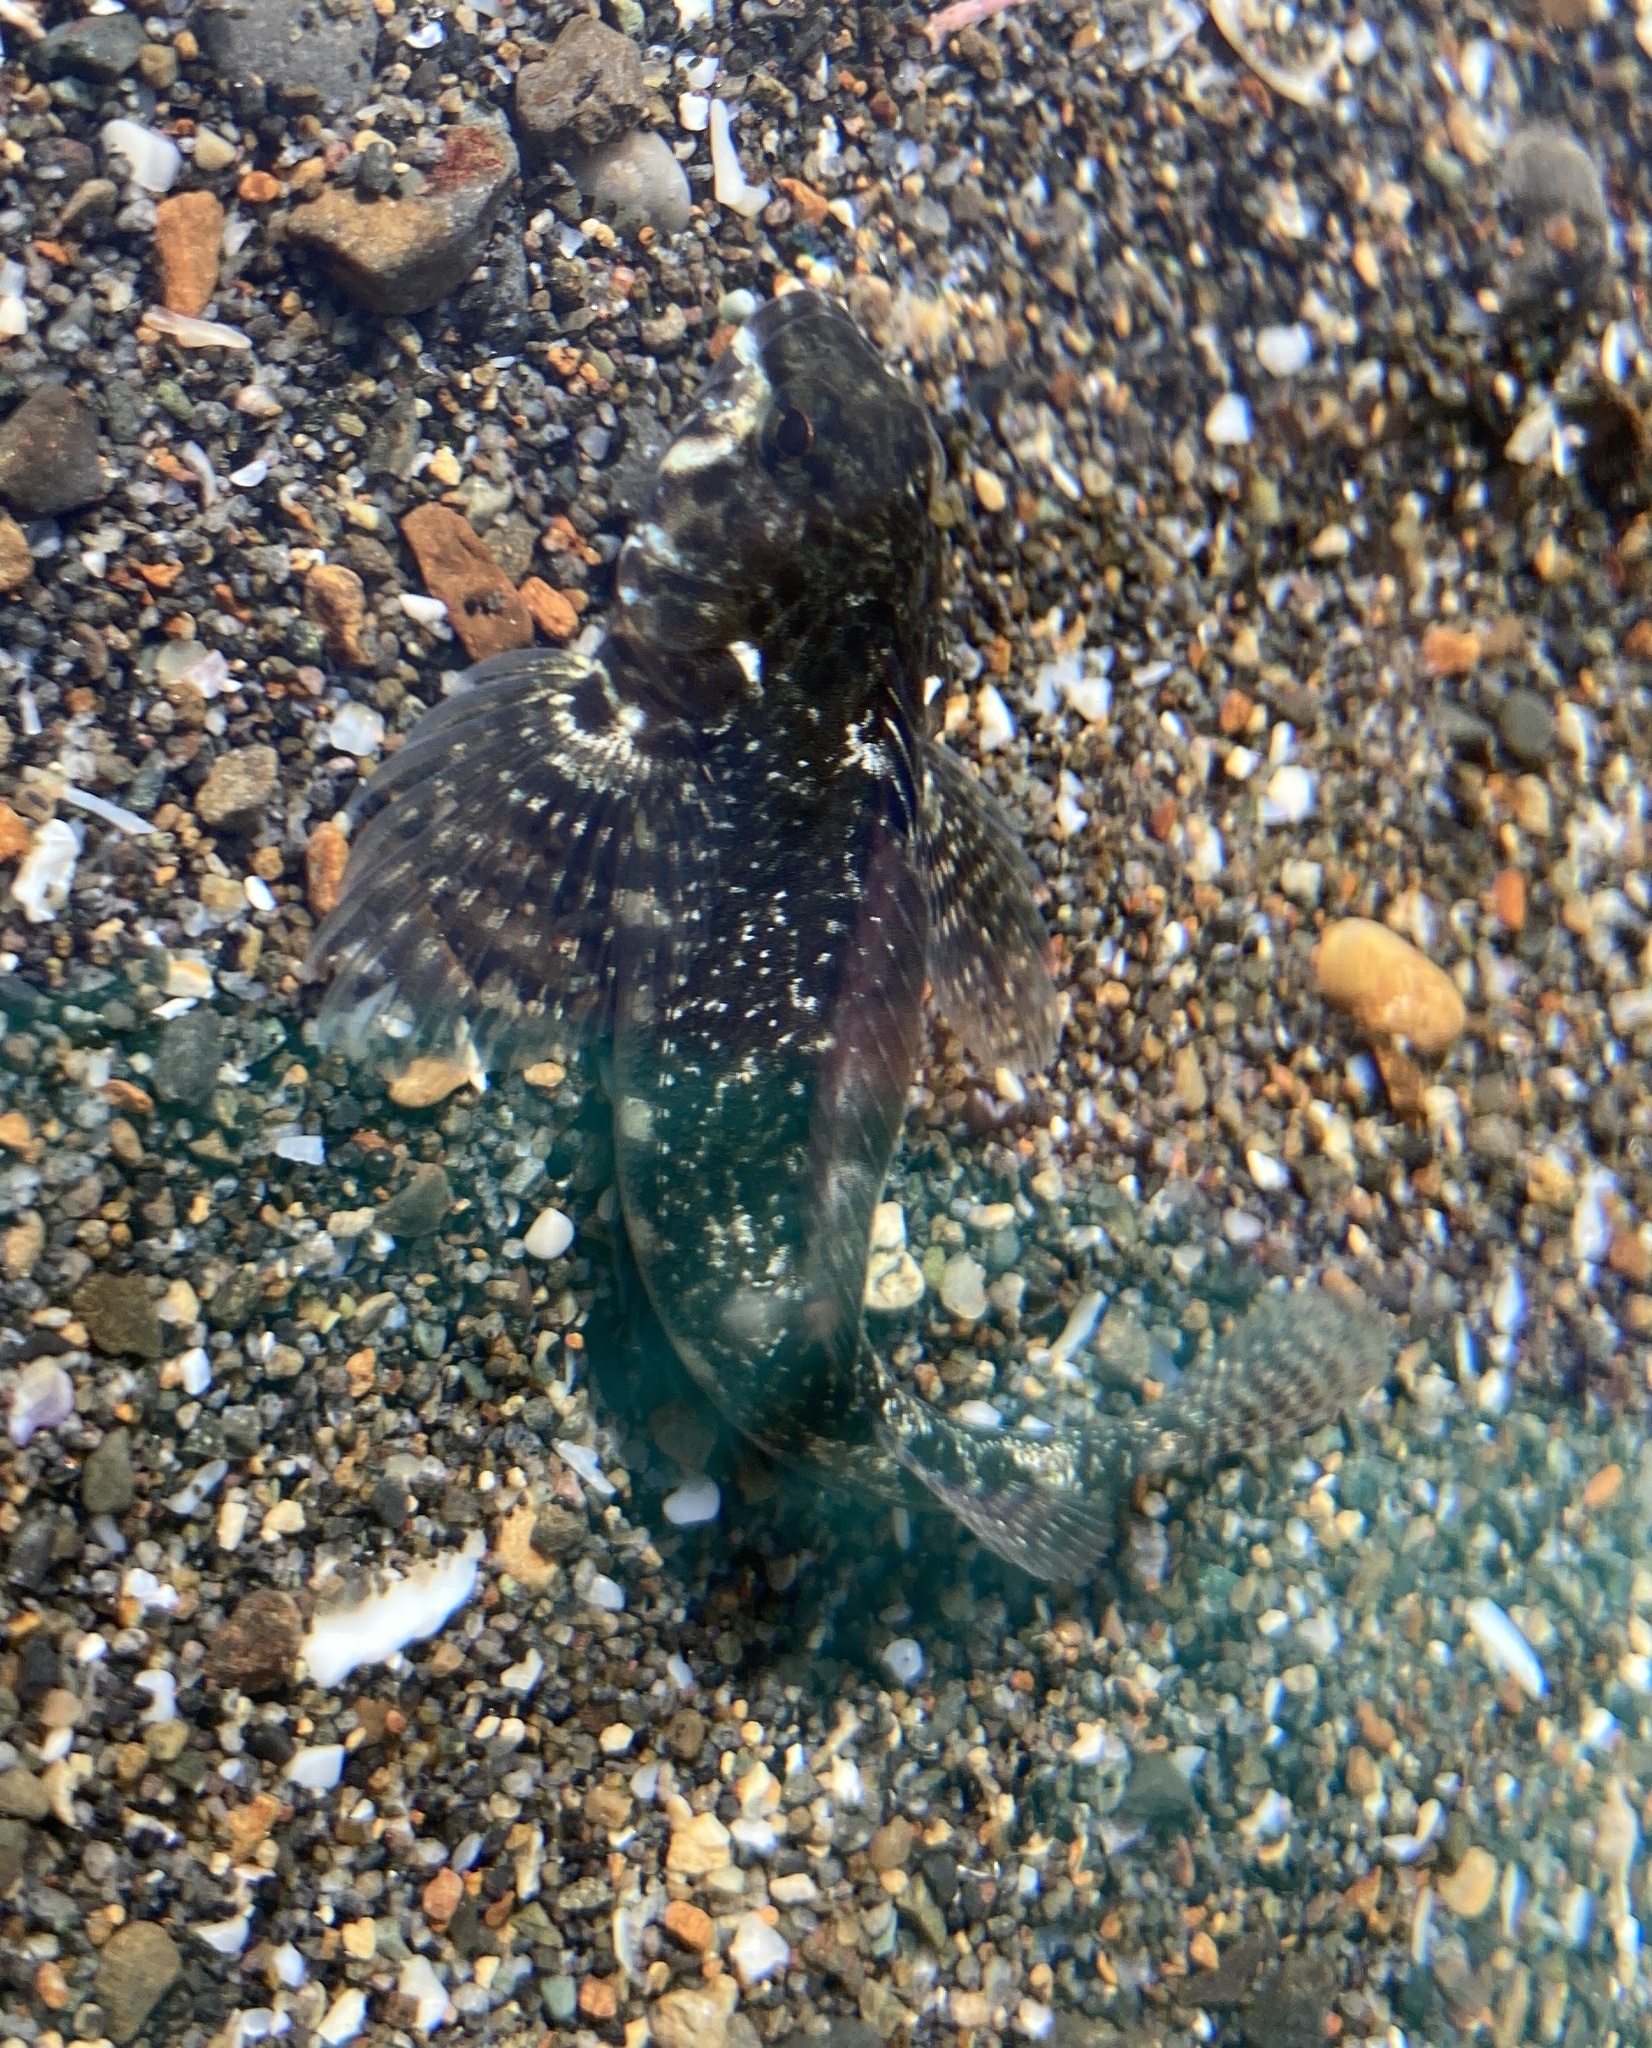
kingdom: Animalia
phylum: Chordata
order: Perciformes
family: Tripterygiidae
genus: Bellapiscis
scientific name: Bellapiscis medius
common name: Twister
